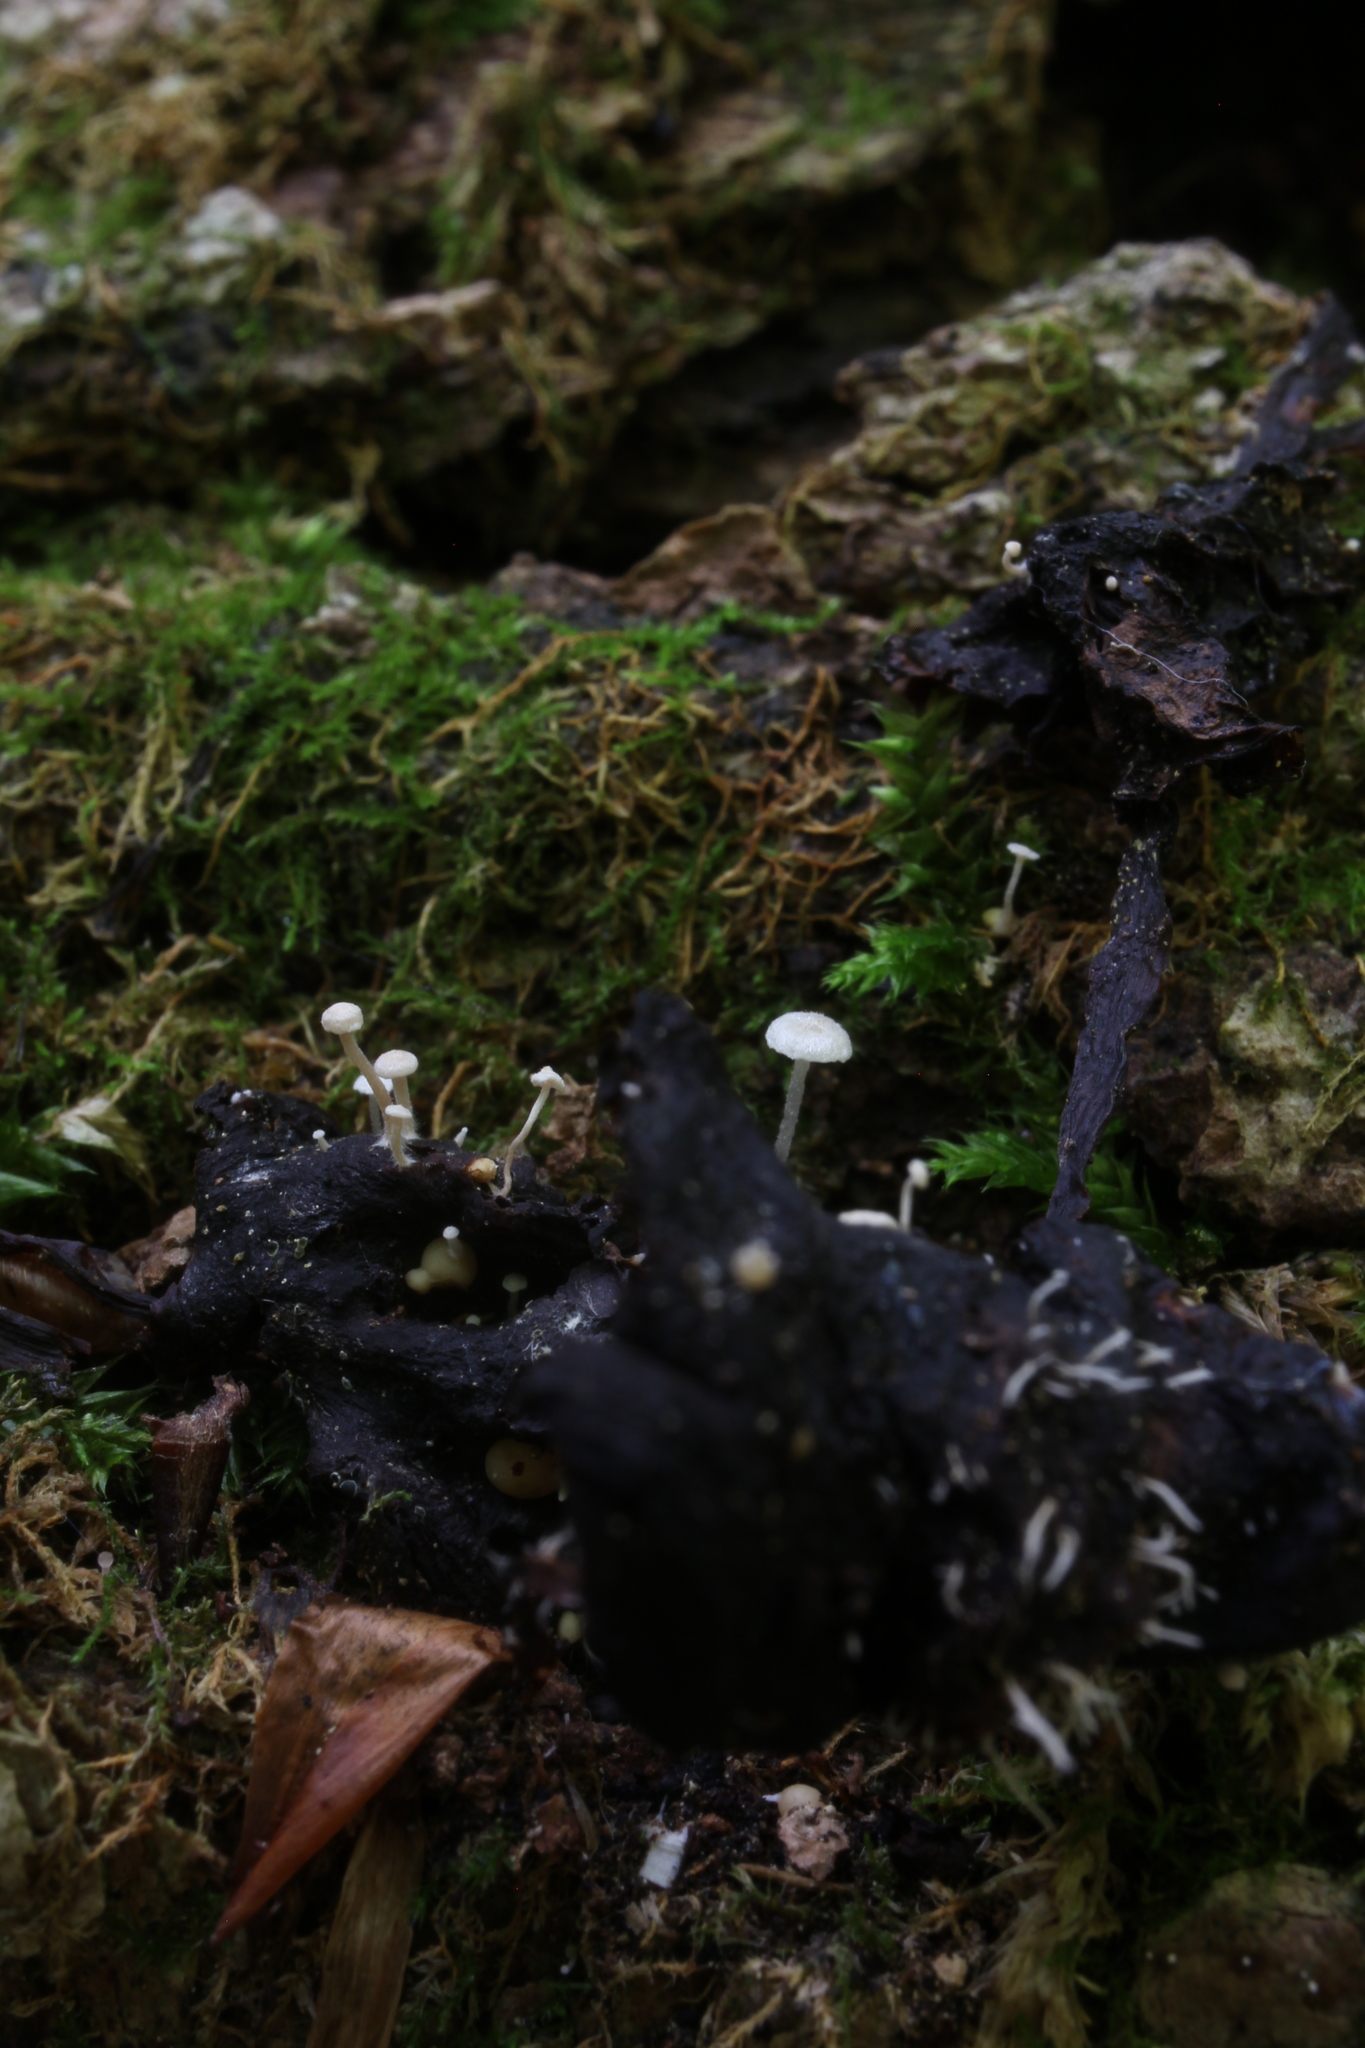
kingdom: Fungi
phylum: Basidiomycota
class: Agaricomycetes
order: Agaricales
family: Tricholomataceae
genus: Collybia
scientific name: Collybia tuberosa
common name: Lentil shanklet
